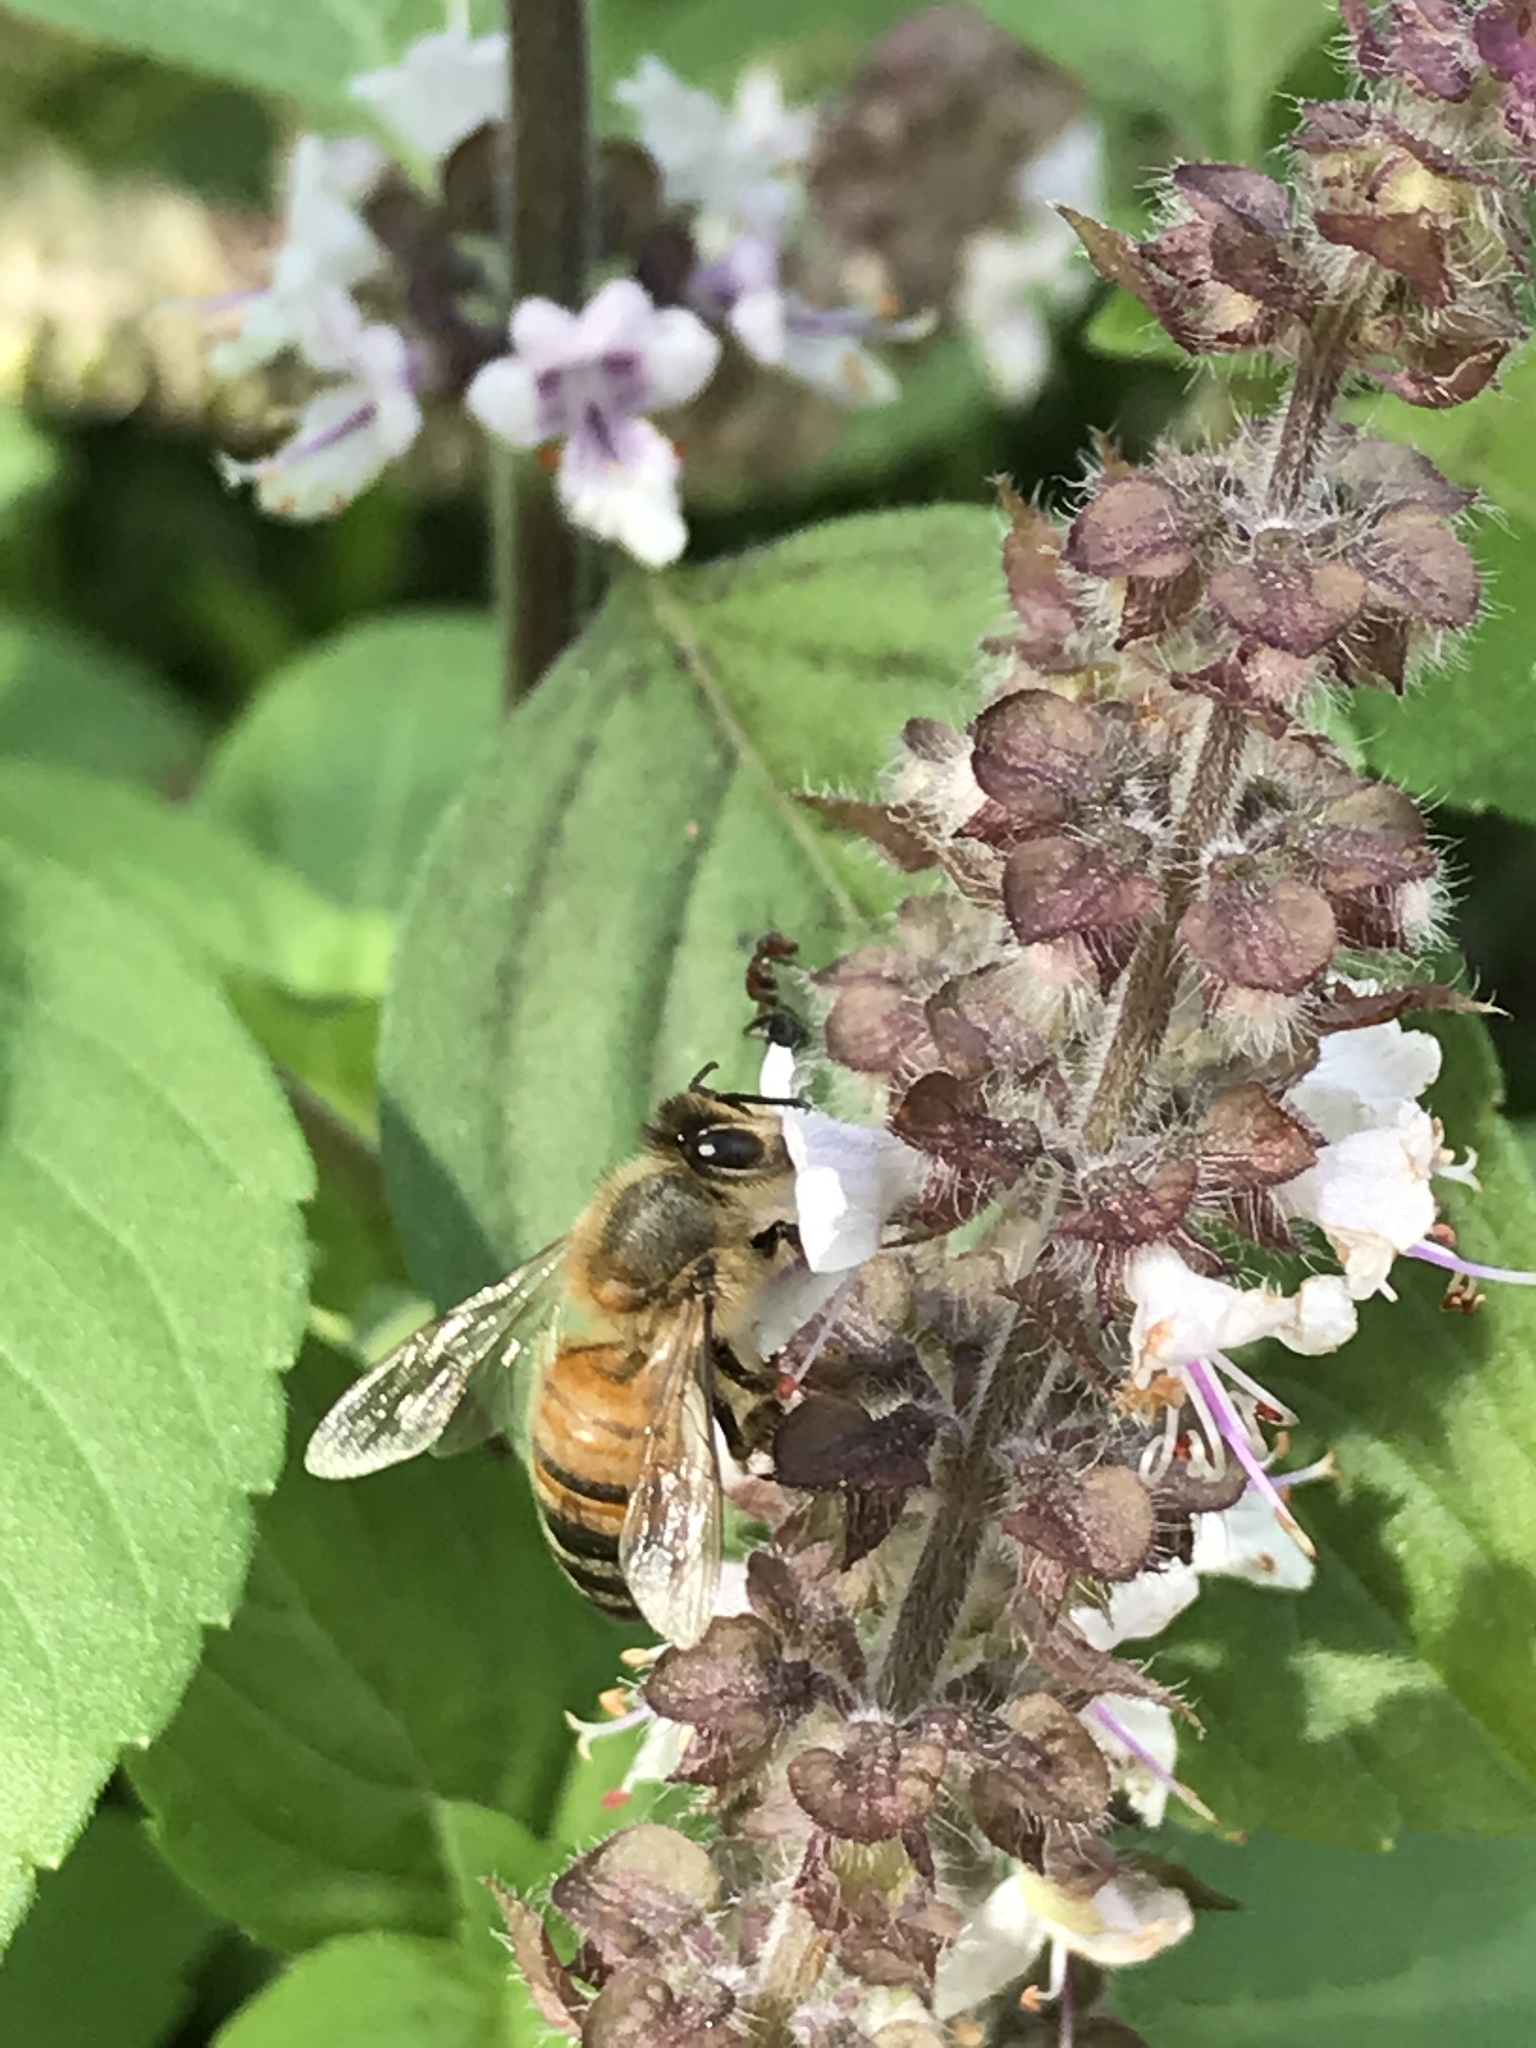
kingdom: Animalia
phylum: Arthropoda
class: Insecta
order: Hymenoptera
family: Apidae
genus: Apis
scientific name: Apis mellifera
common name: Honey bee
